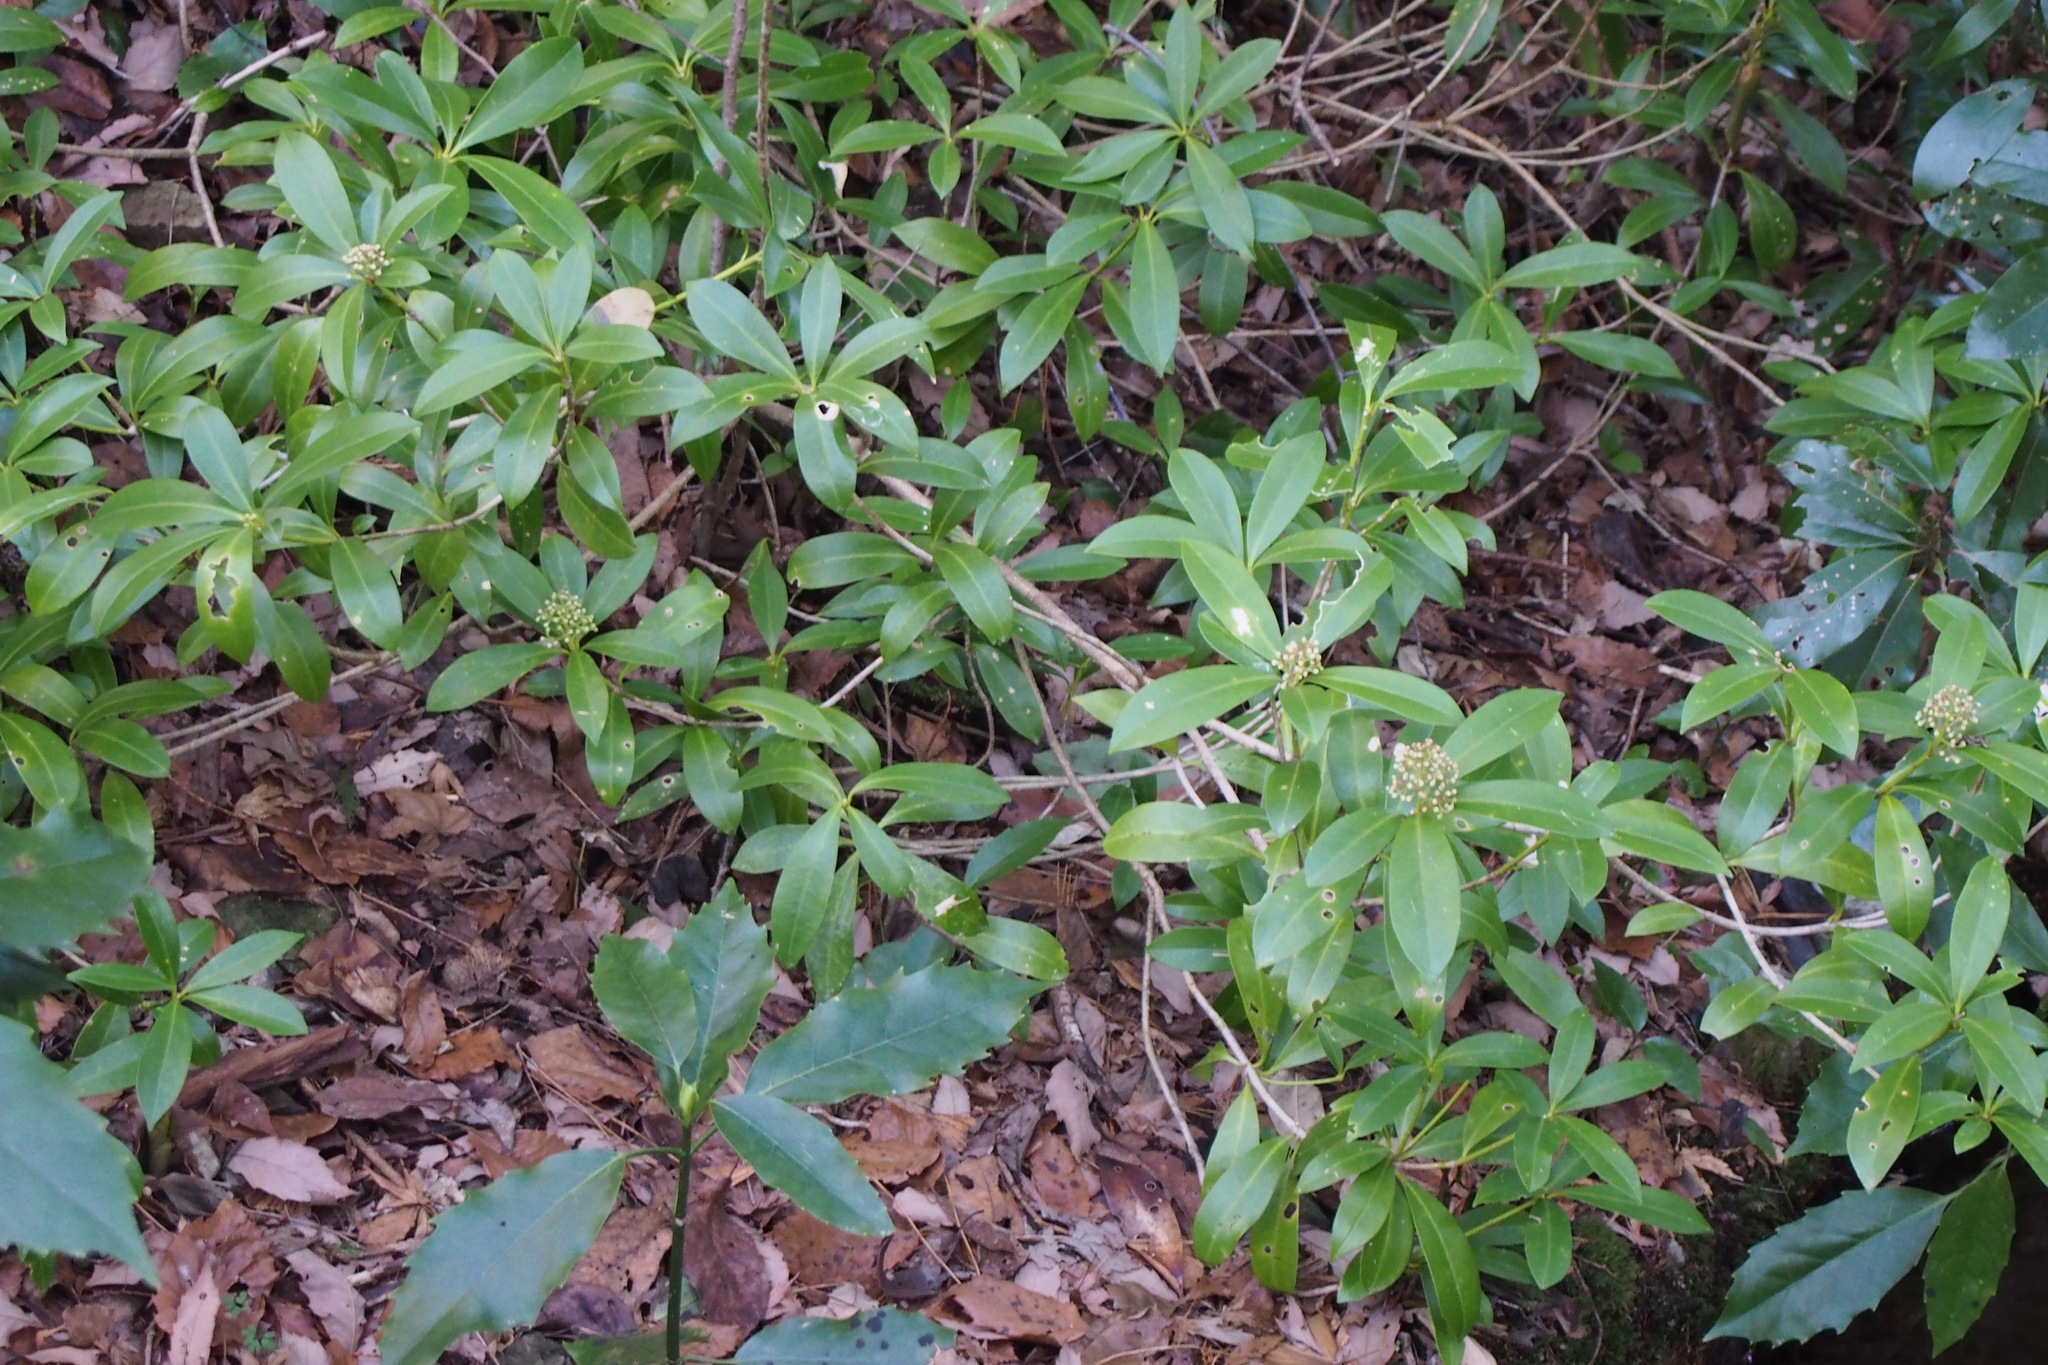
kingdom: Plantae
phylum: Tracheophyta
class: Magnoliopsida
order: Sapindales
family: Rutaceae
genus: Skimmia
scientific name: Skimmia japonica
